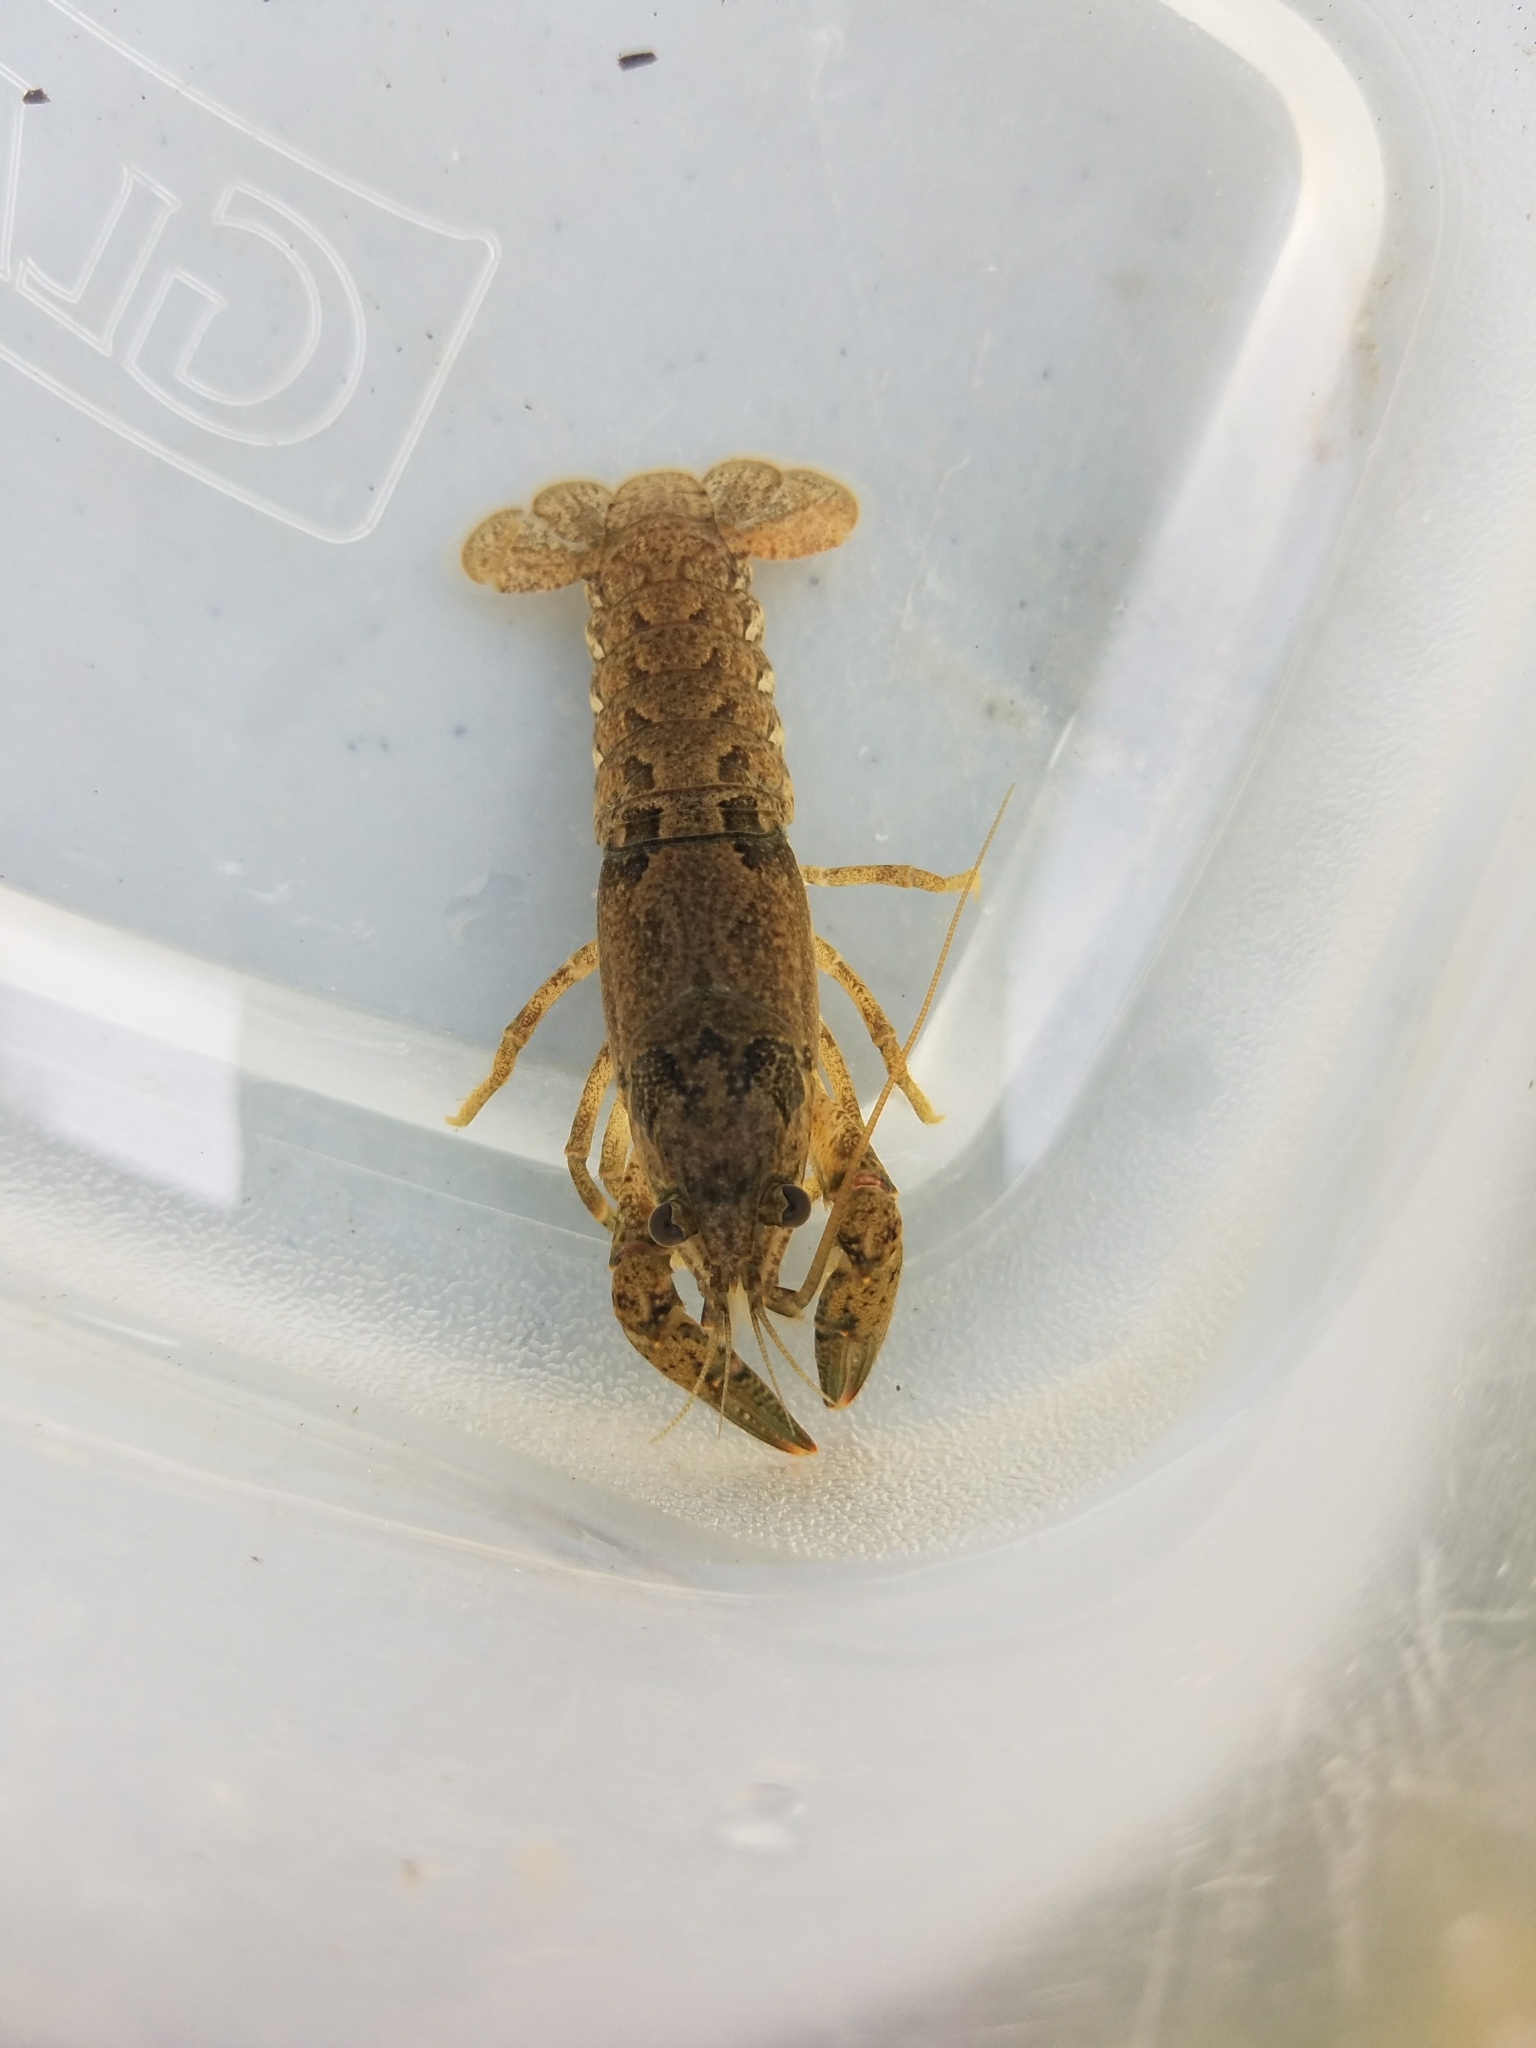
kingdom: Animalia
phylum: Arthropoda
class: Malacostraca
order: Decapoda
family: Cambaridae
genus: Faxonius
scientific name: Faxonius virilis
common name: Virile crayfish
